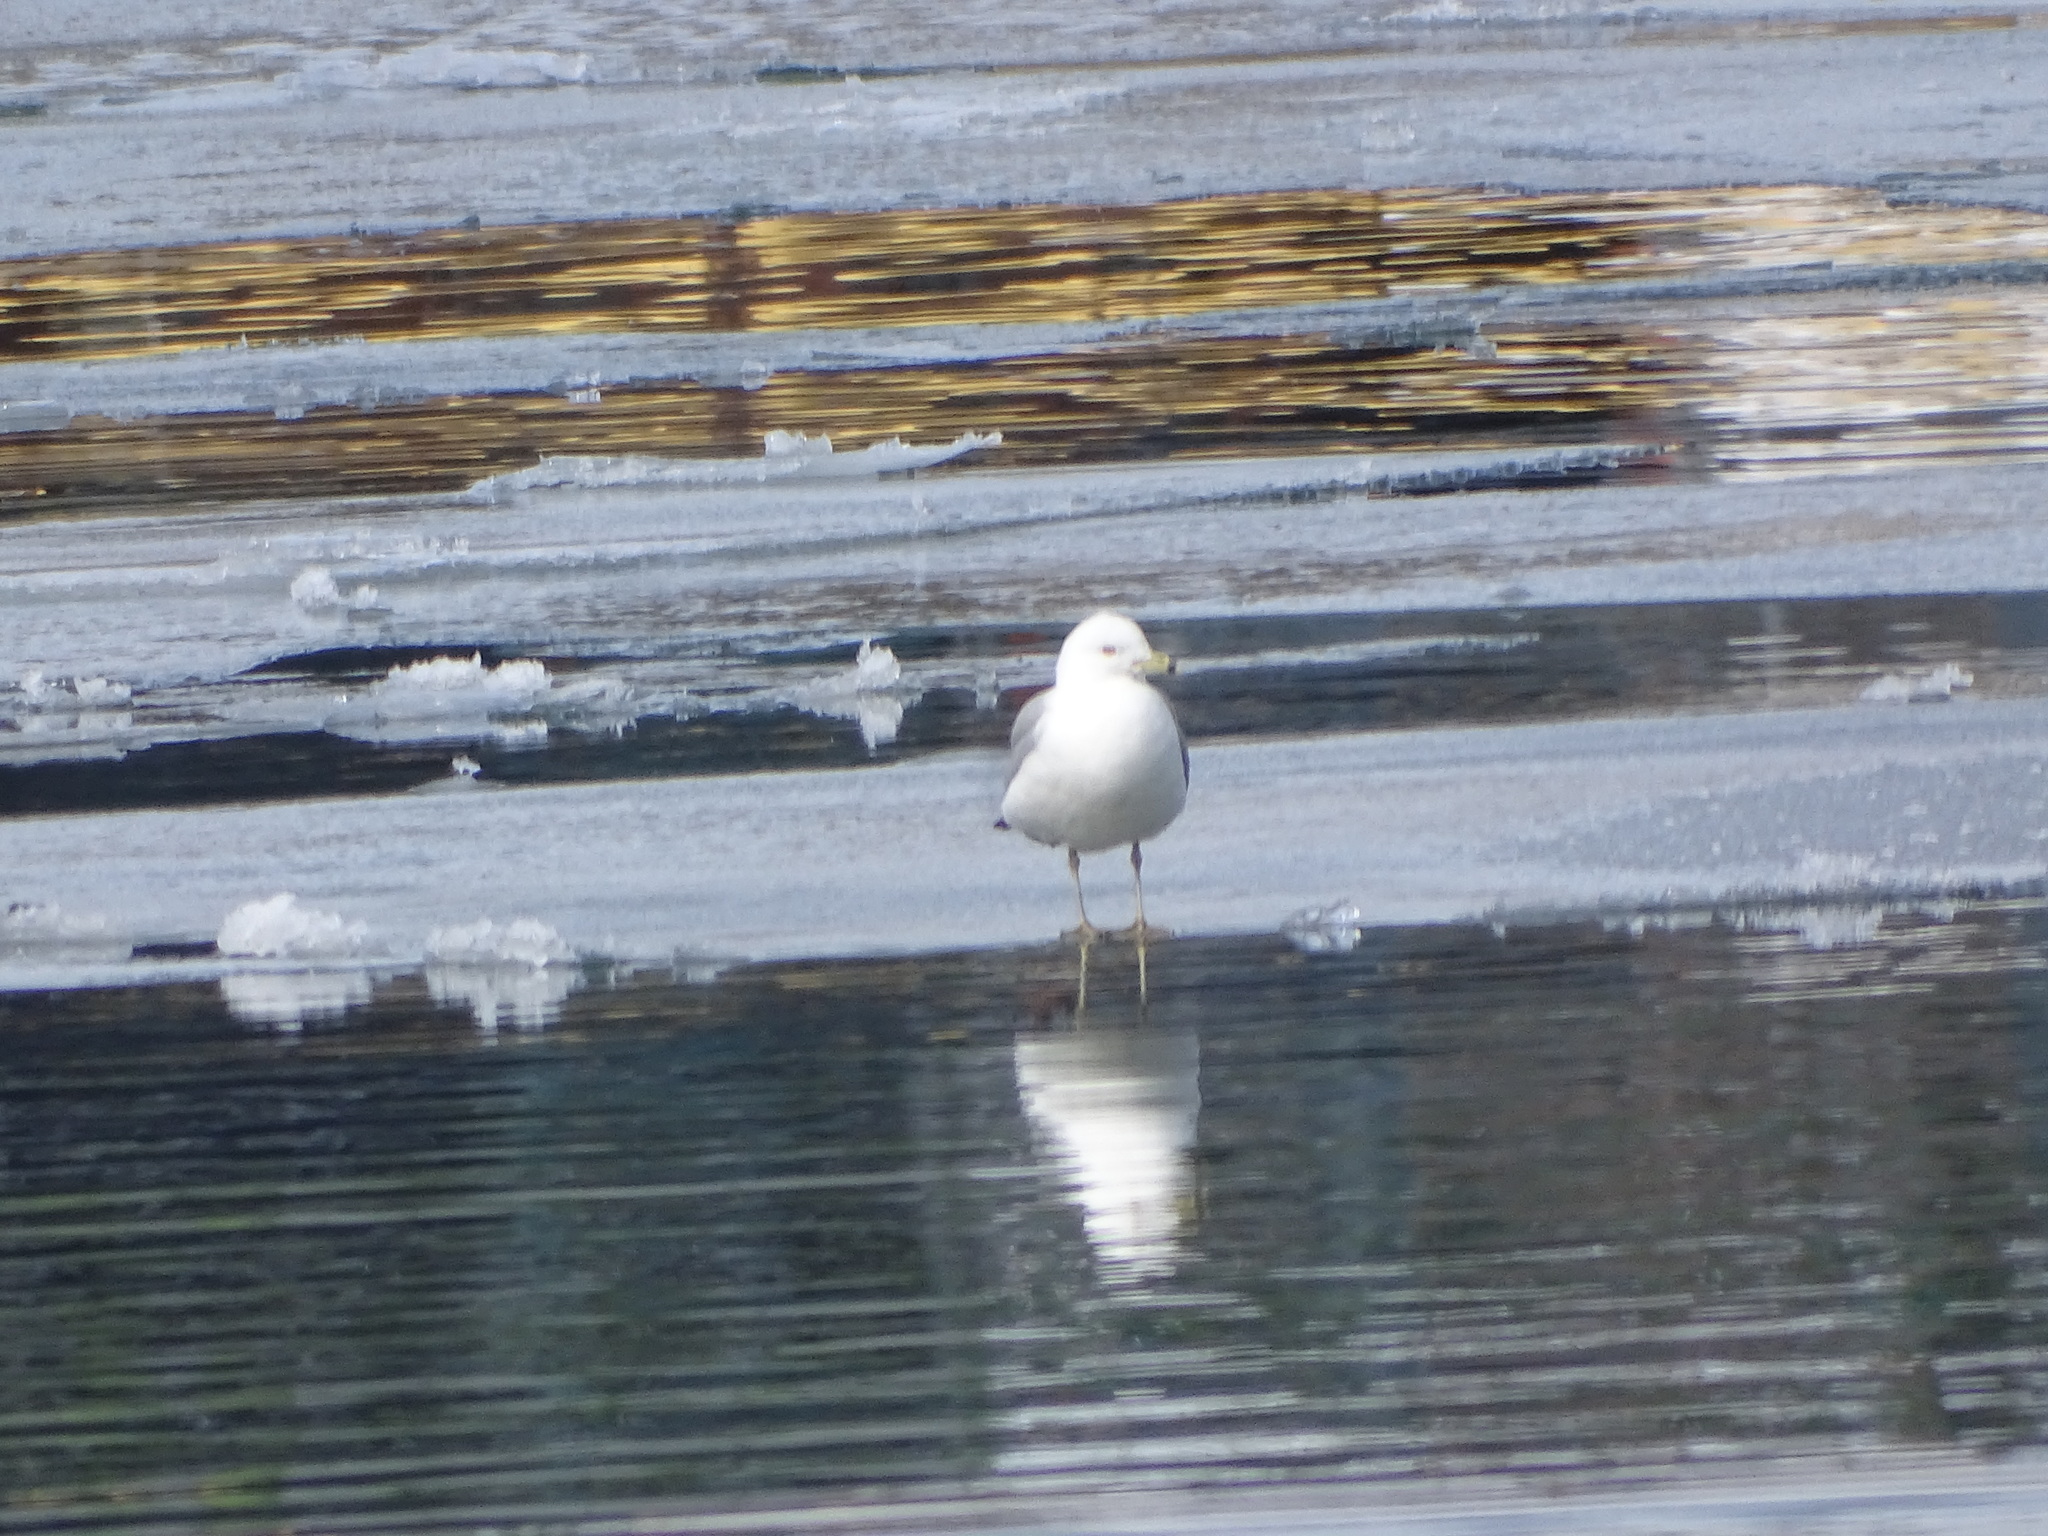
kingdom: Animalia
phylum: Chordata
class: Aves
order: Charadriiformes
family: Laridae
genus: Larus
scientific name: Larus delawarensis
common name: Ring-billed gull
